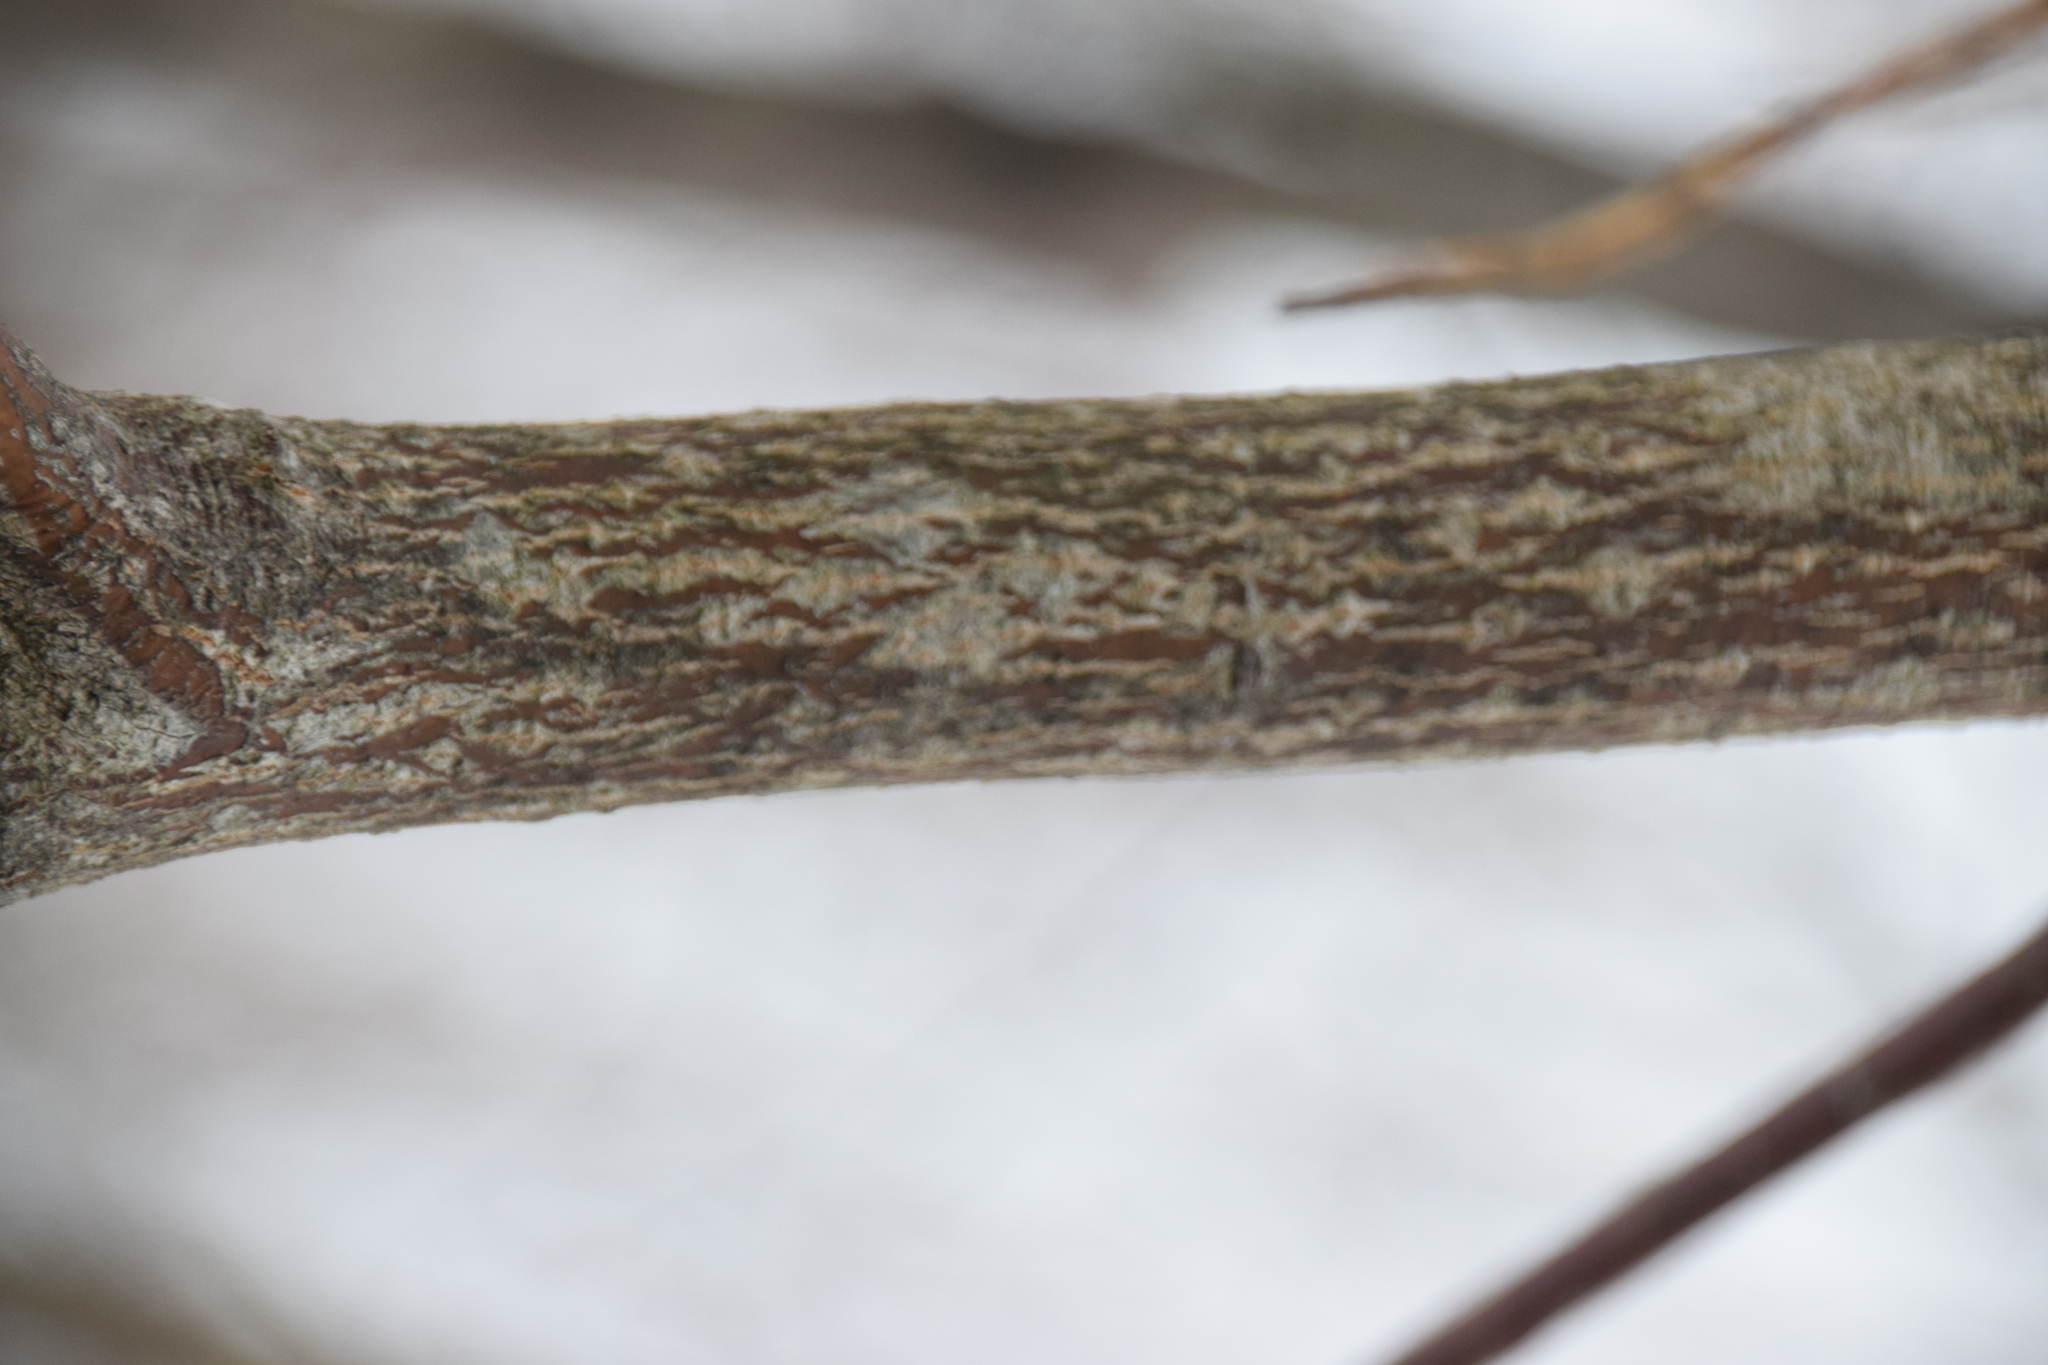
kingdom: Plantae
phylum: Tracheophyta
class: Magnoliopsida
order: Cornales
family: Cornaceae
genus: Cornus
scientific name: Cornus alternifolia
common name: Pagoda dogwood
